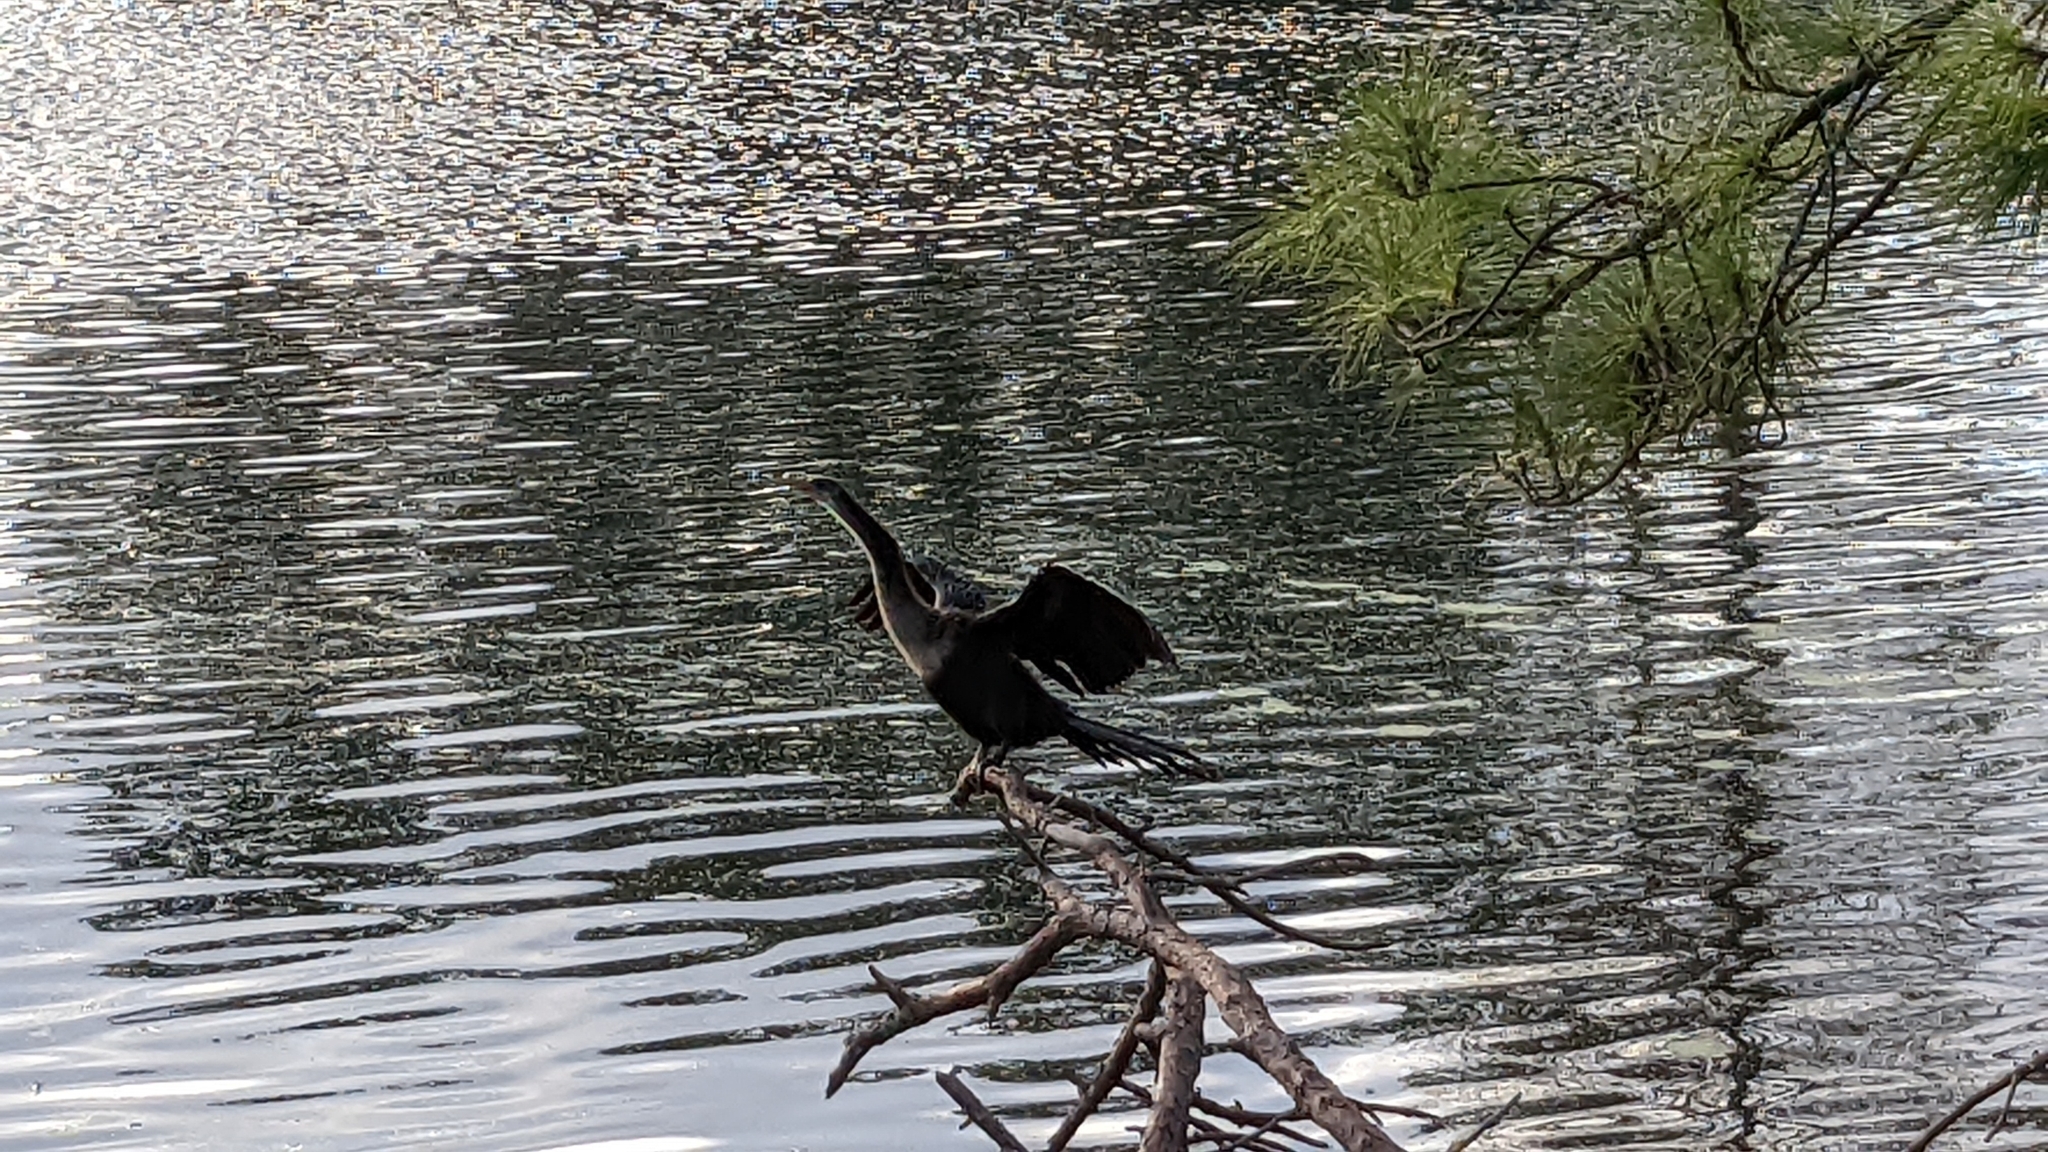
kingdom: Animalia
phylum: Chordata
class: Aves
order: Suliformes
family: Anhingidae
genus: Anhinga
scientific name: Anhinga anhinga
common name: Anhinga
